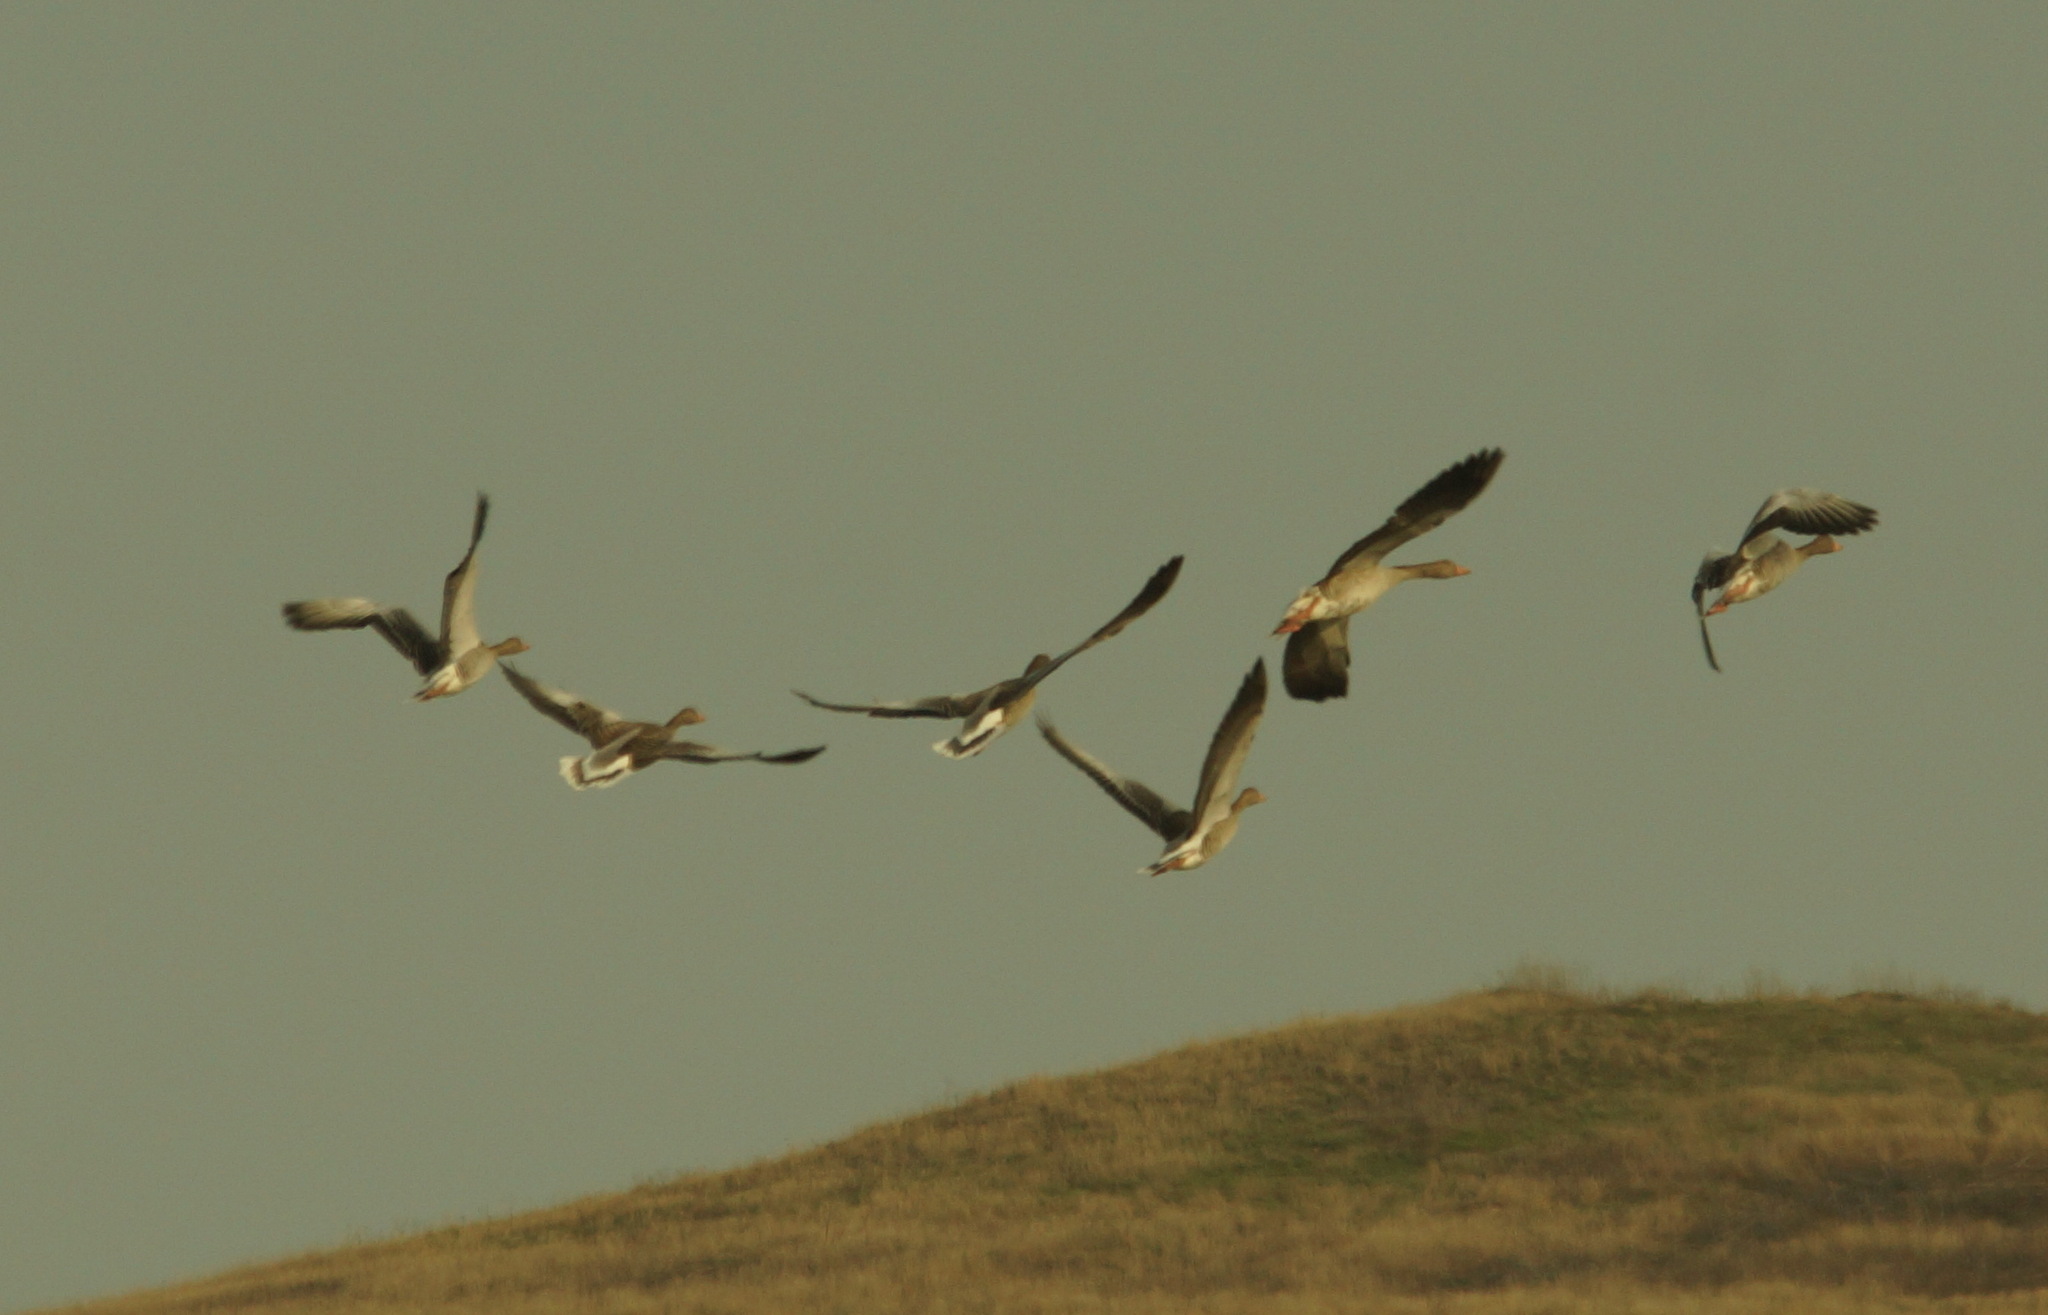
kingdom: Animalia
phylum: Chordata
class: Aves
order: Anseriformes
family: Anatidae
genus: Anser
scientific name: Anser anser
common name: Greylag goose
